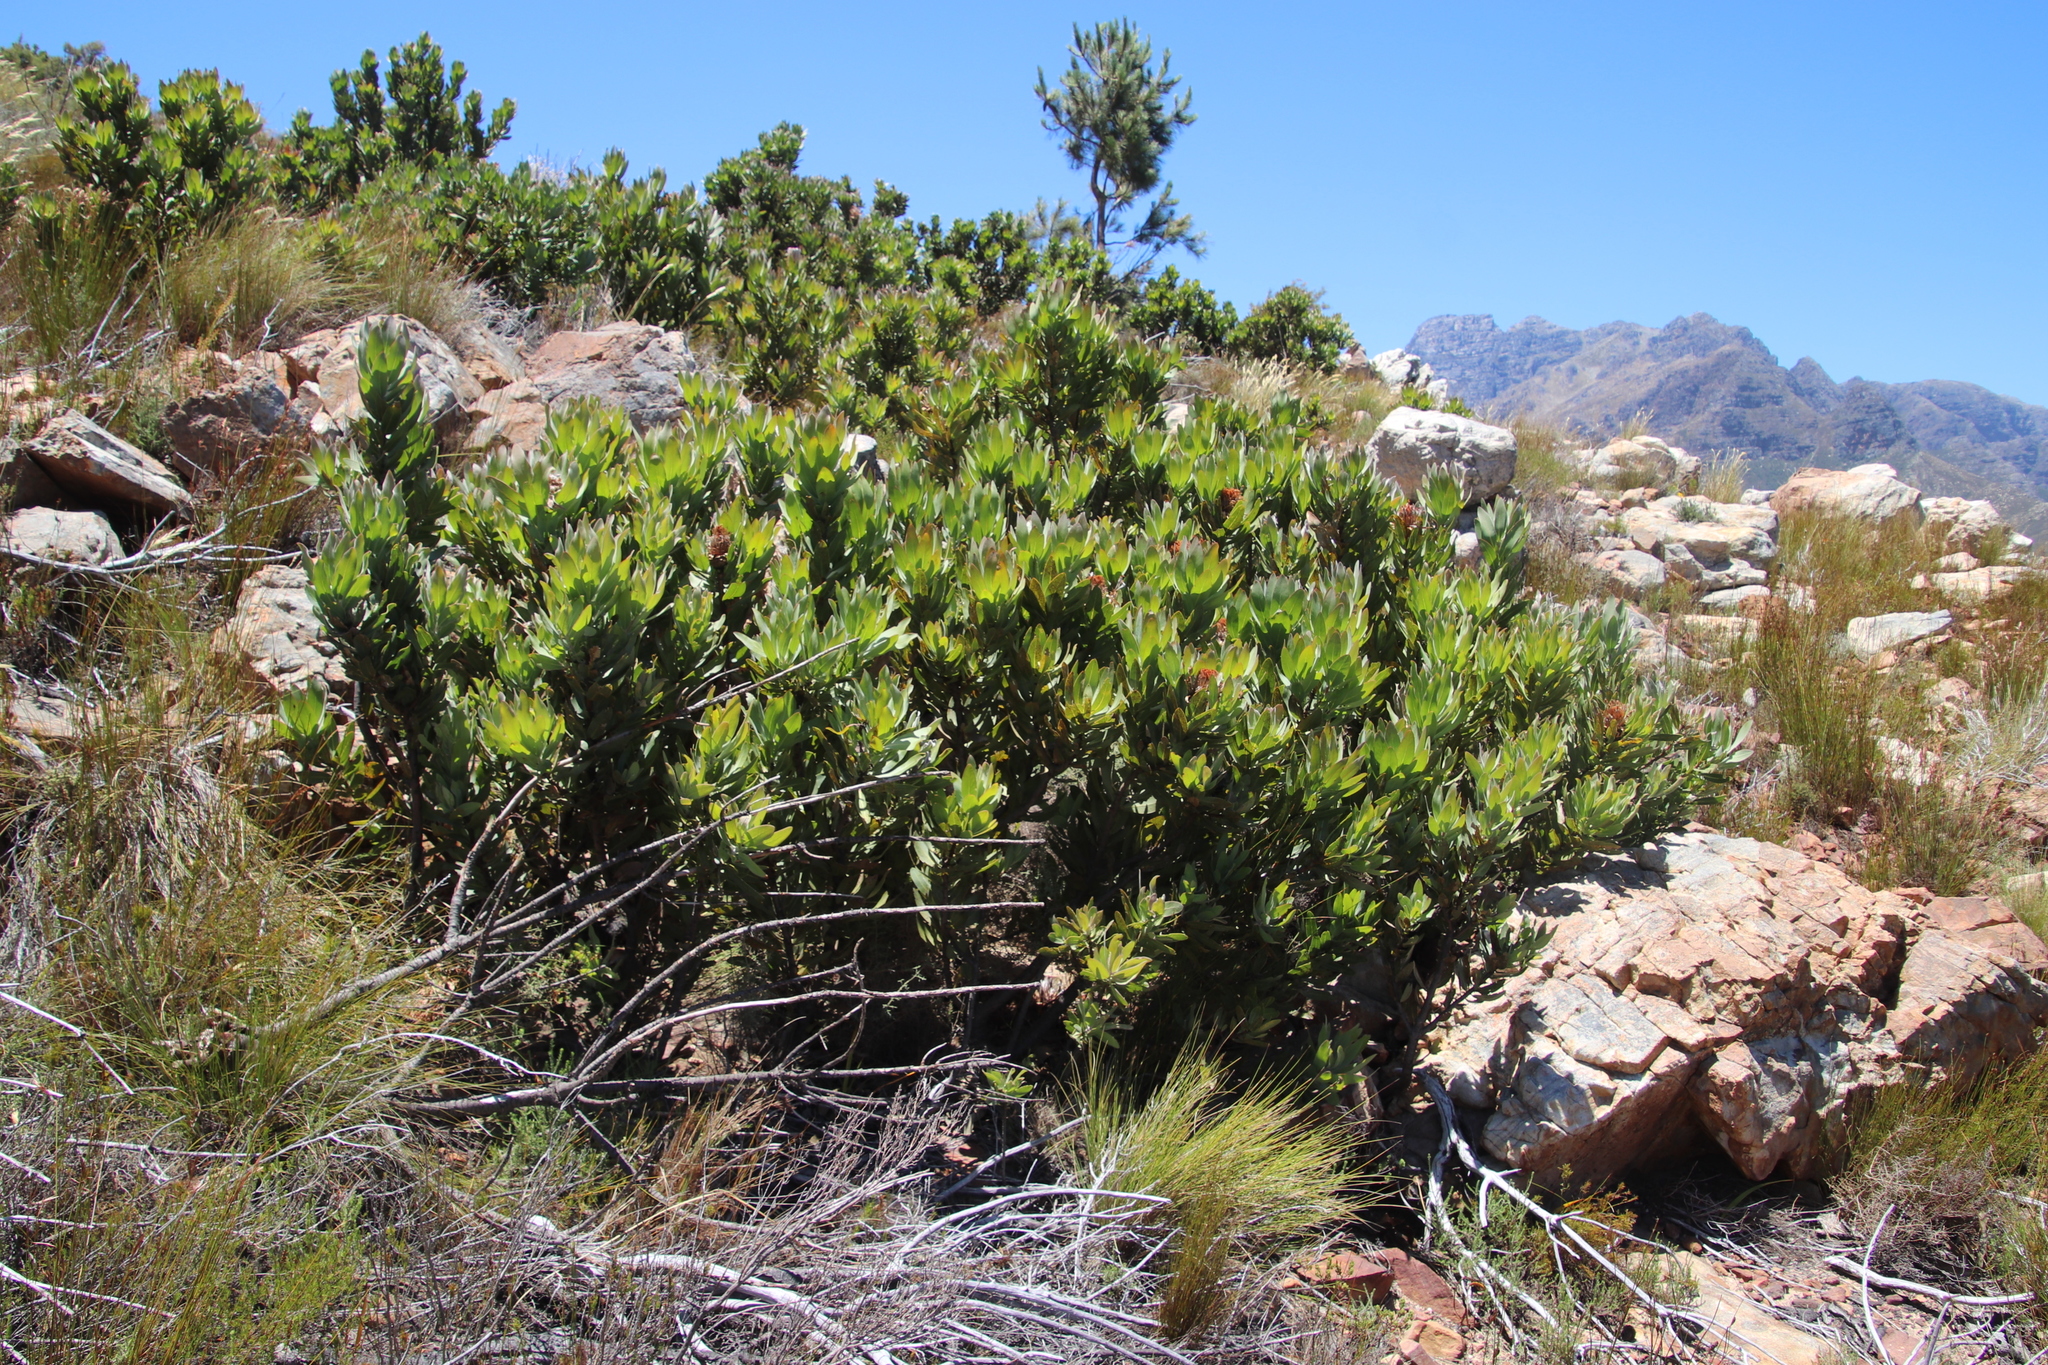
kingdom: Plantae
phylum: Tracheophyta
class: Magnoliopsida
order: Proteales
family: Proteaceae
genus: Protea
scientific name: Protea laurifolia
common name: Grey-leaf sugarbsh
